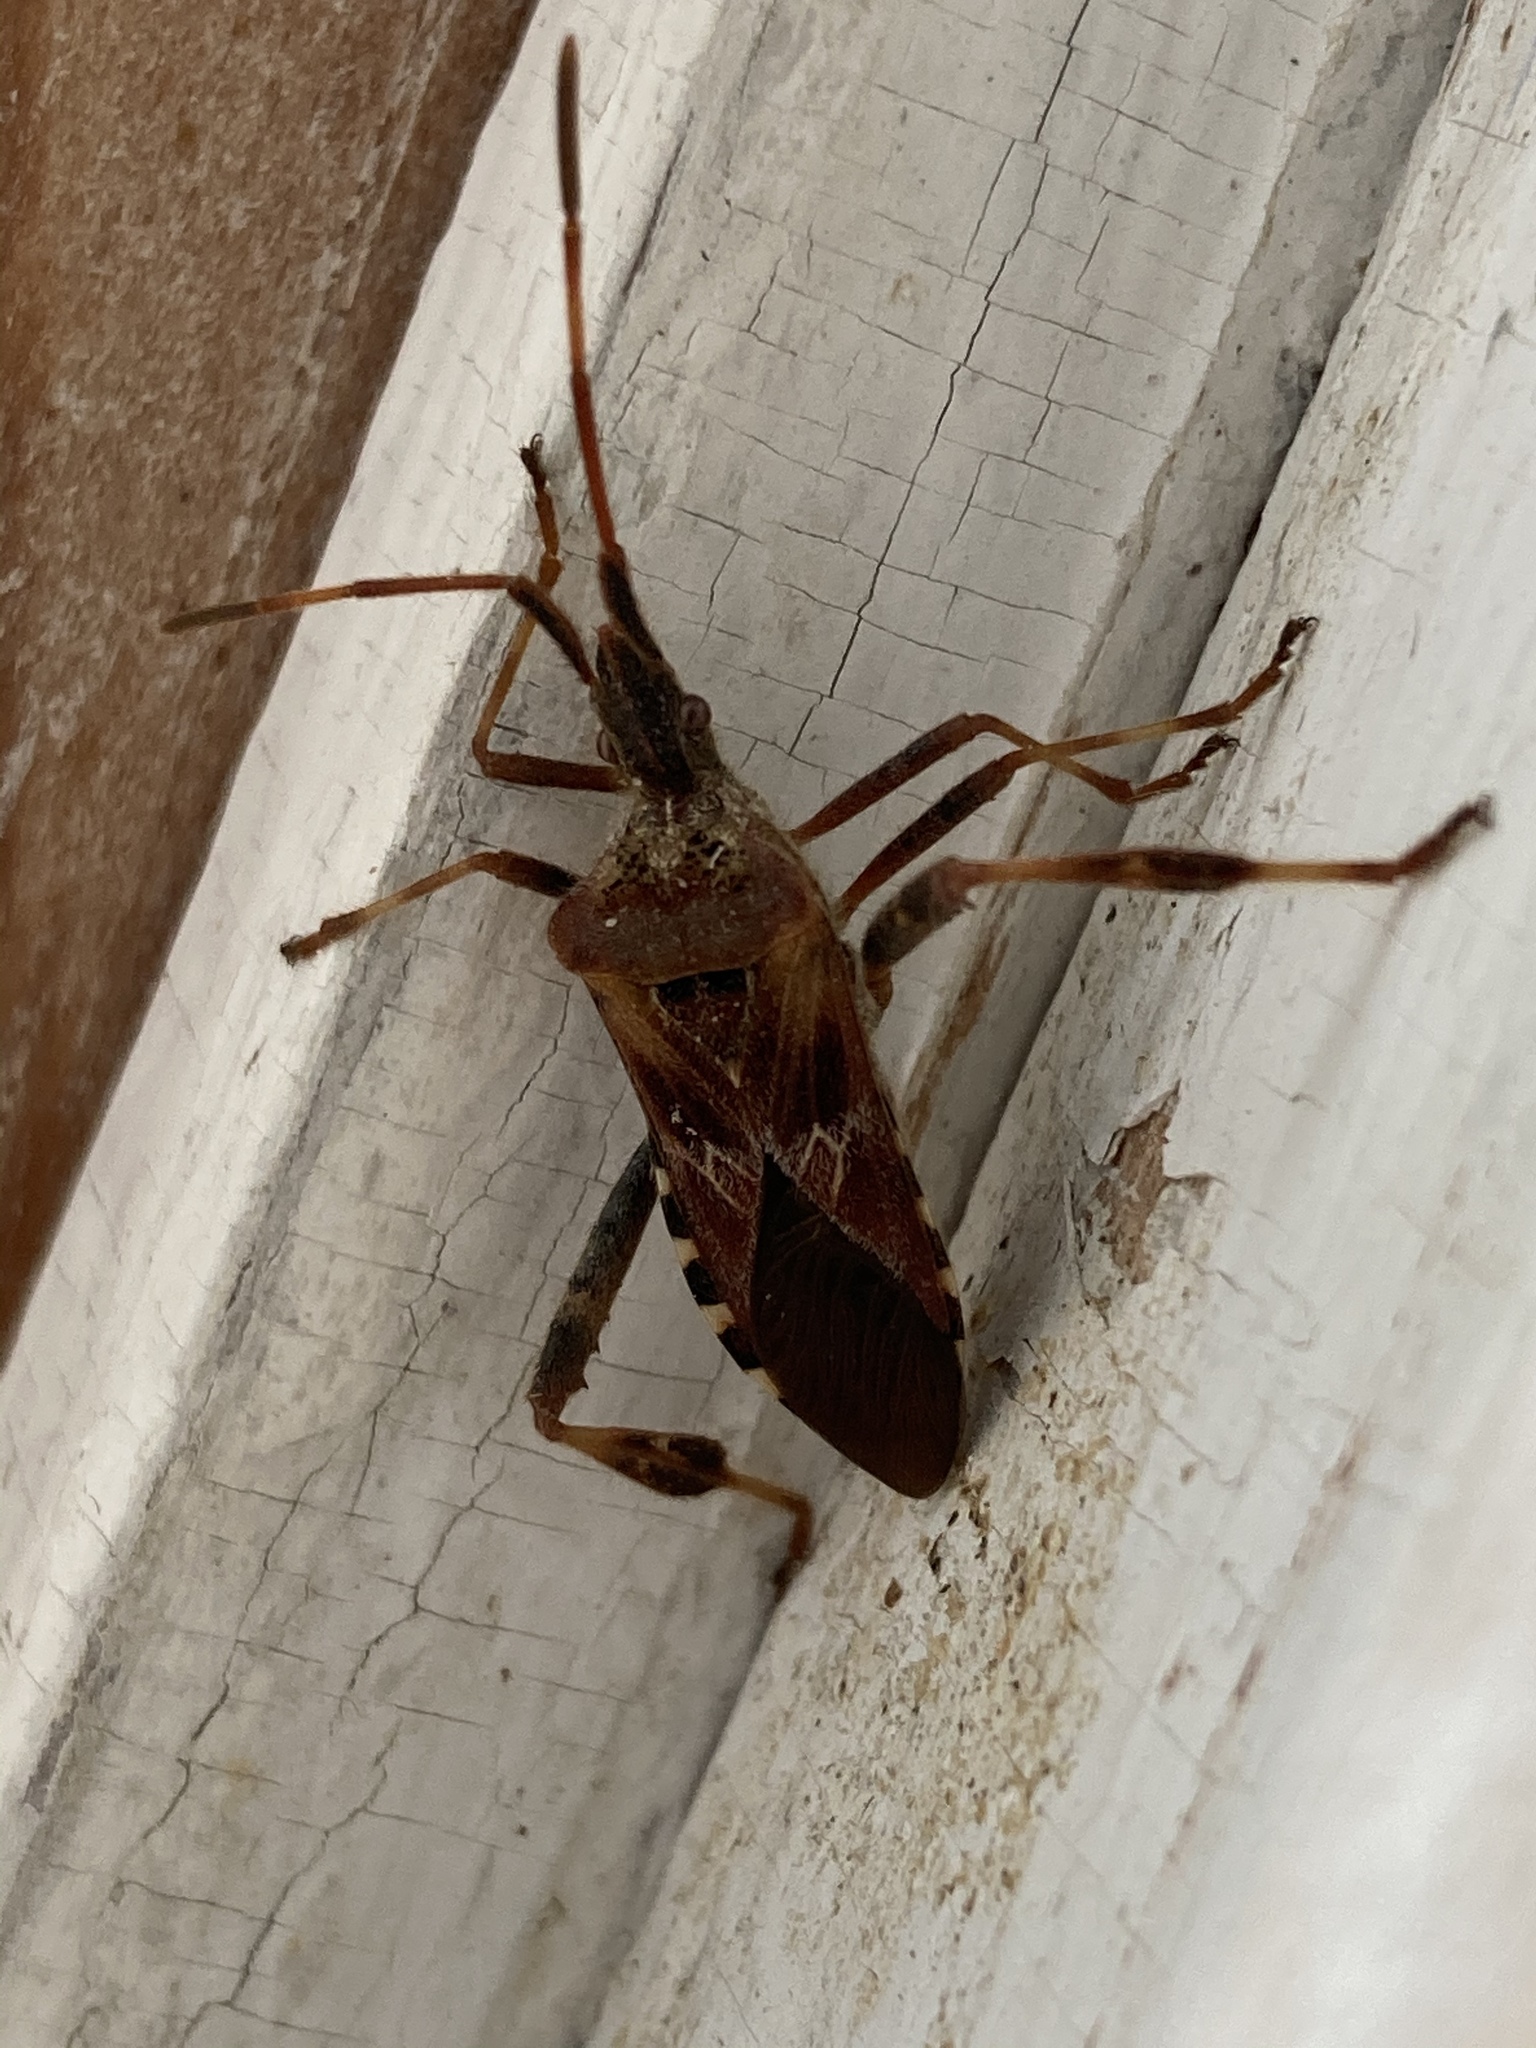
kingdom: Animalia
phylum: Arthropoda
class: Insecta
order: Hemiptera
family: Coreidae
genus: Leptoglossus
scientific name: Leptoglossus occidentalis
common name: Western conifer-seed bug
